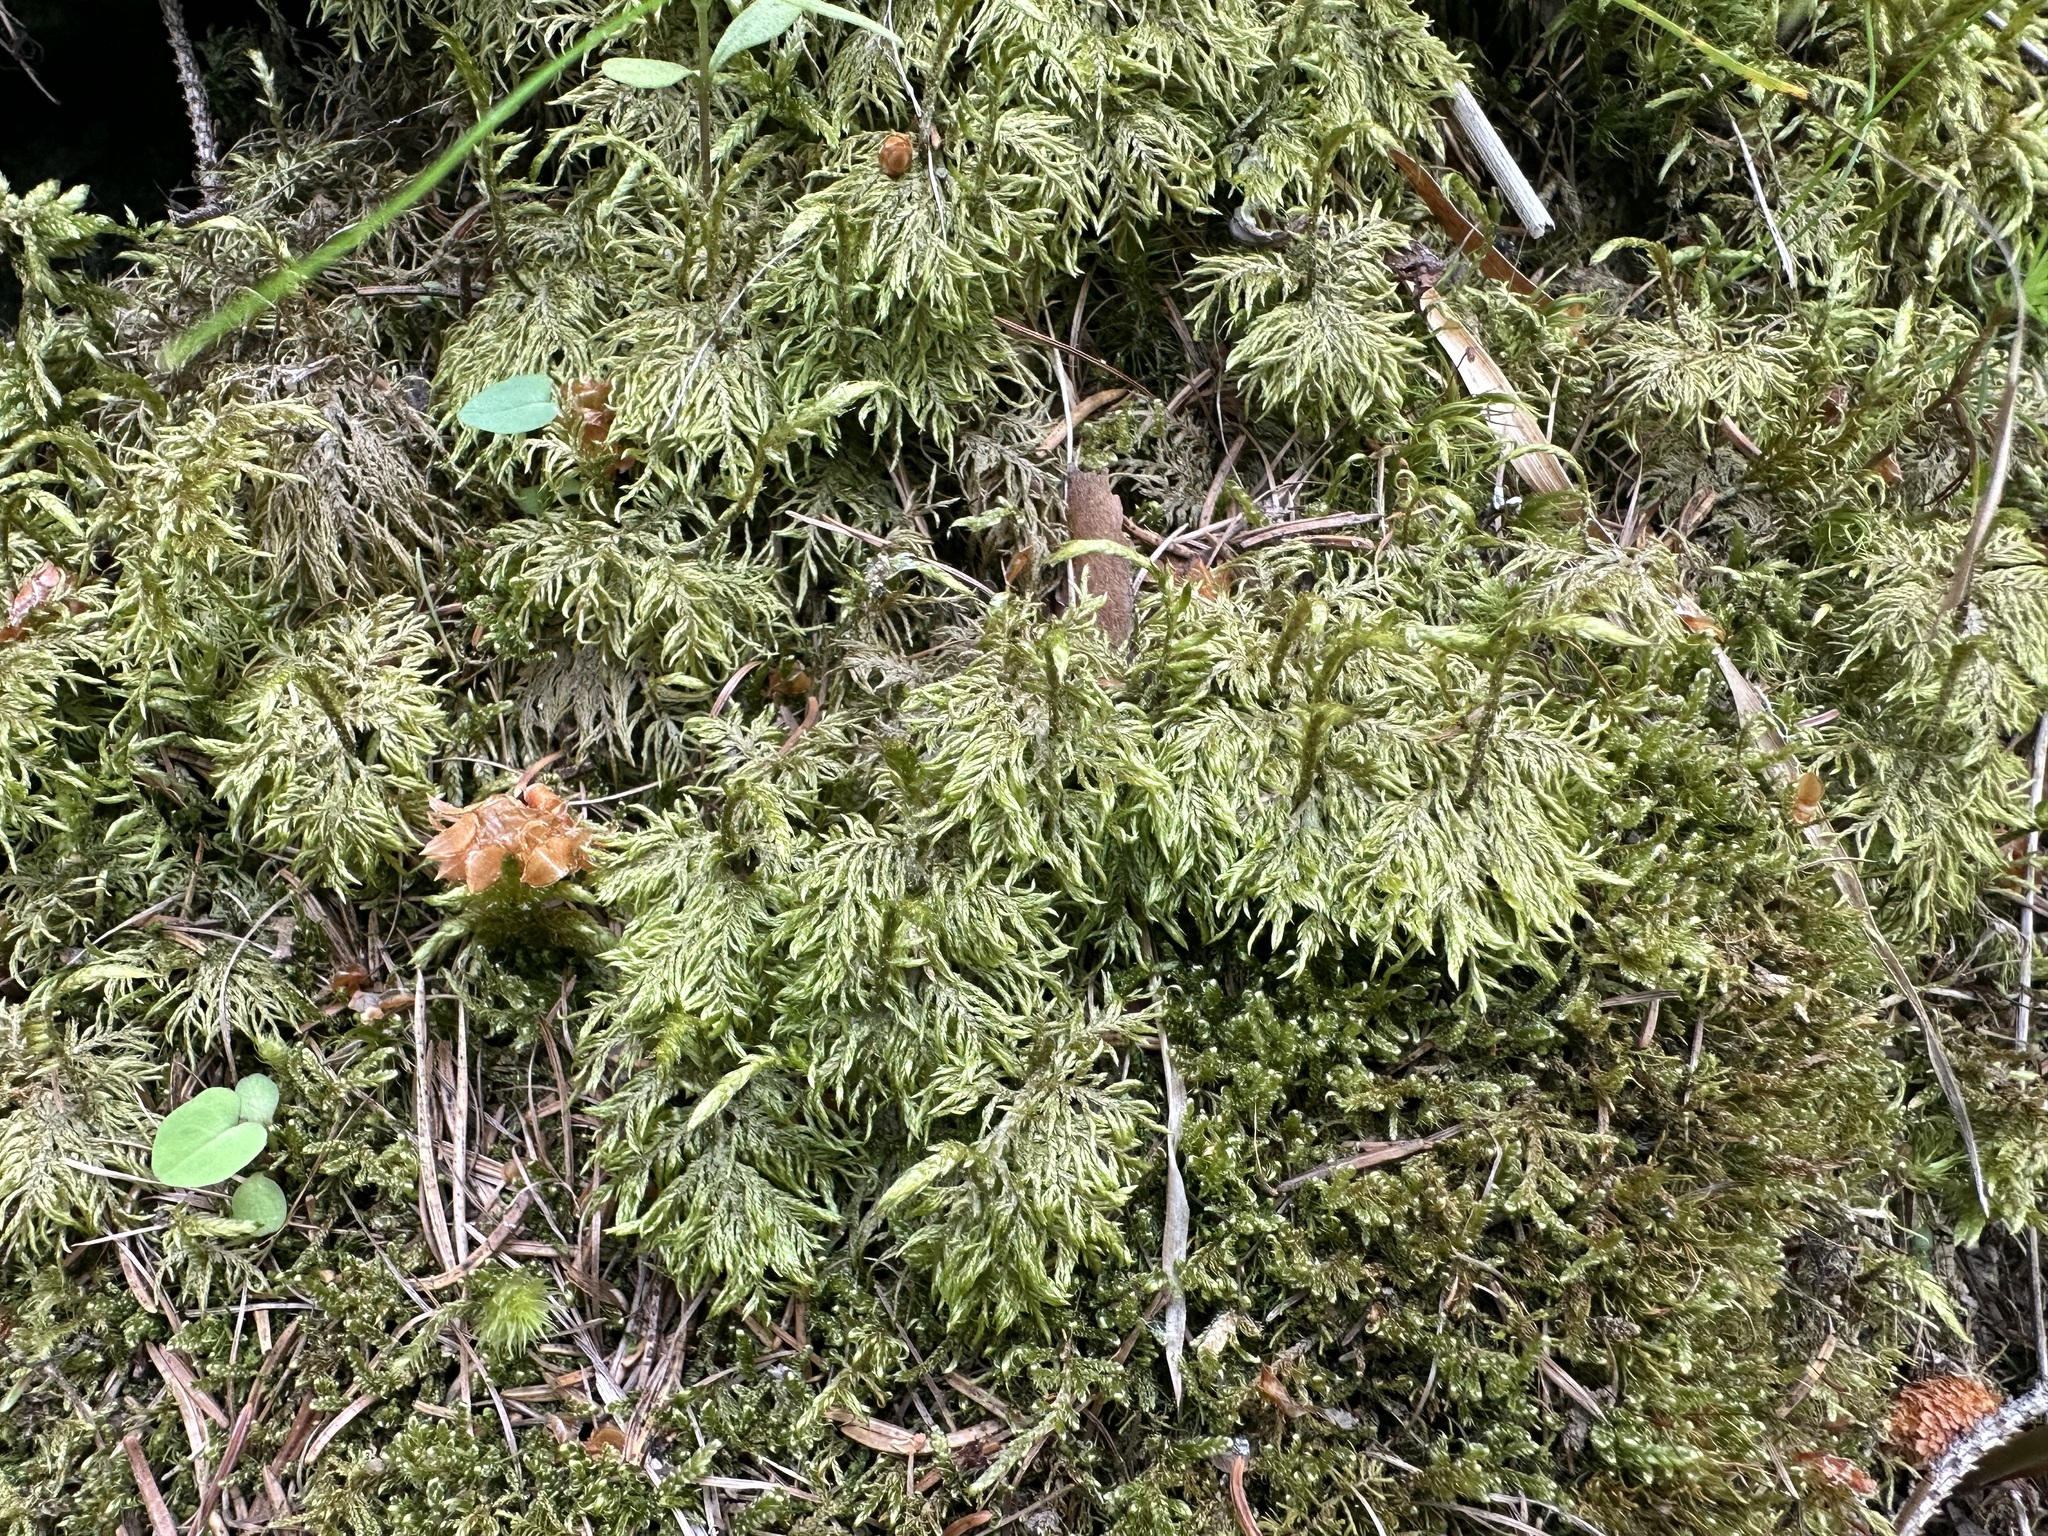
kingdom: Plantae
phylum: Bryophyta
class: Bryopsida
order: Hypnales
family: Hylocomiaceae
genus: Hylocomium
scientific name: Hylocomium splendens
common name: Stairstep moss
